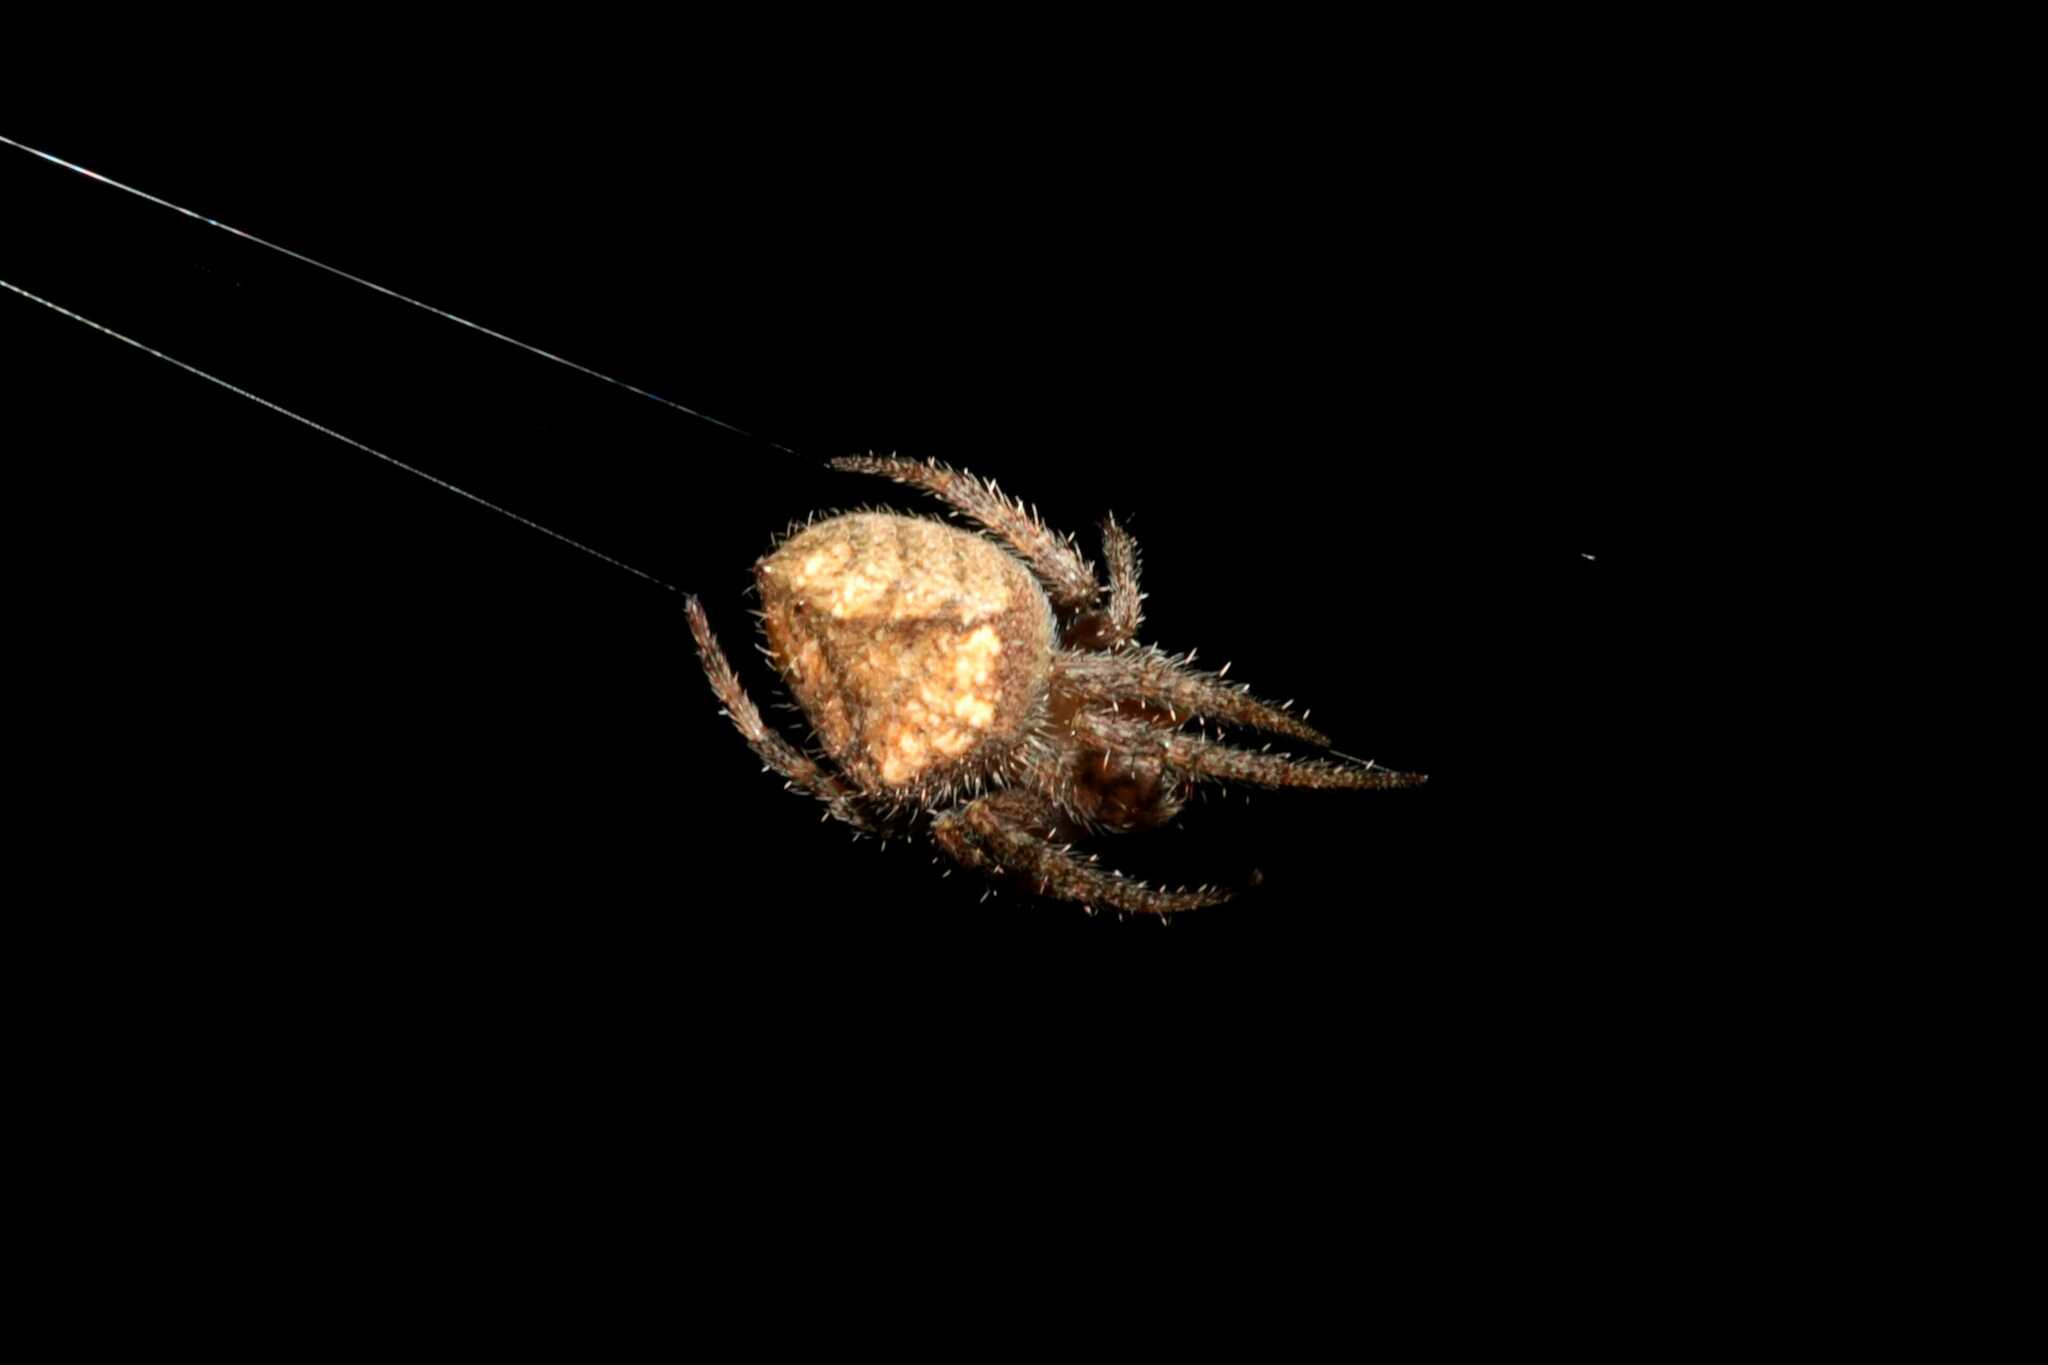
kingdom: Animalia
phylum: Arthropoda
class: Arachnida
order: Araneae
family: Araneidae
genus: Eriophora
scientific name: Eriophora edax
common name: Orb weavers
